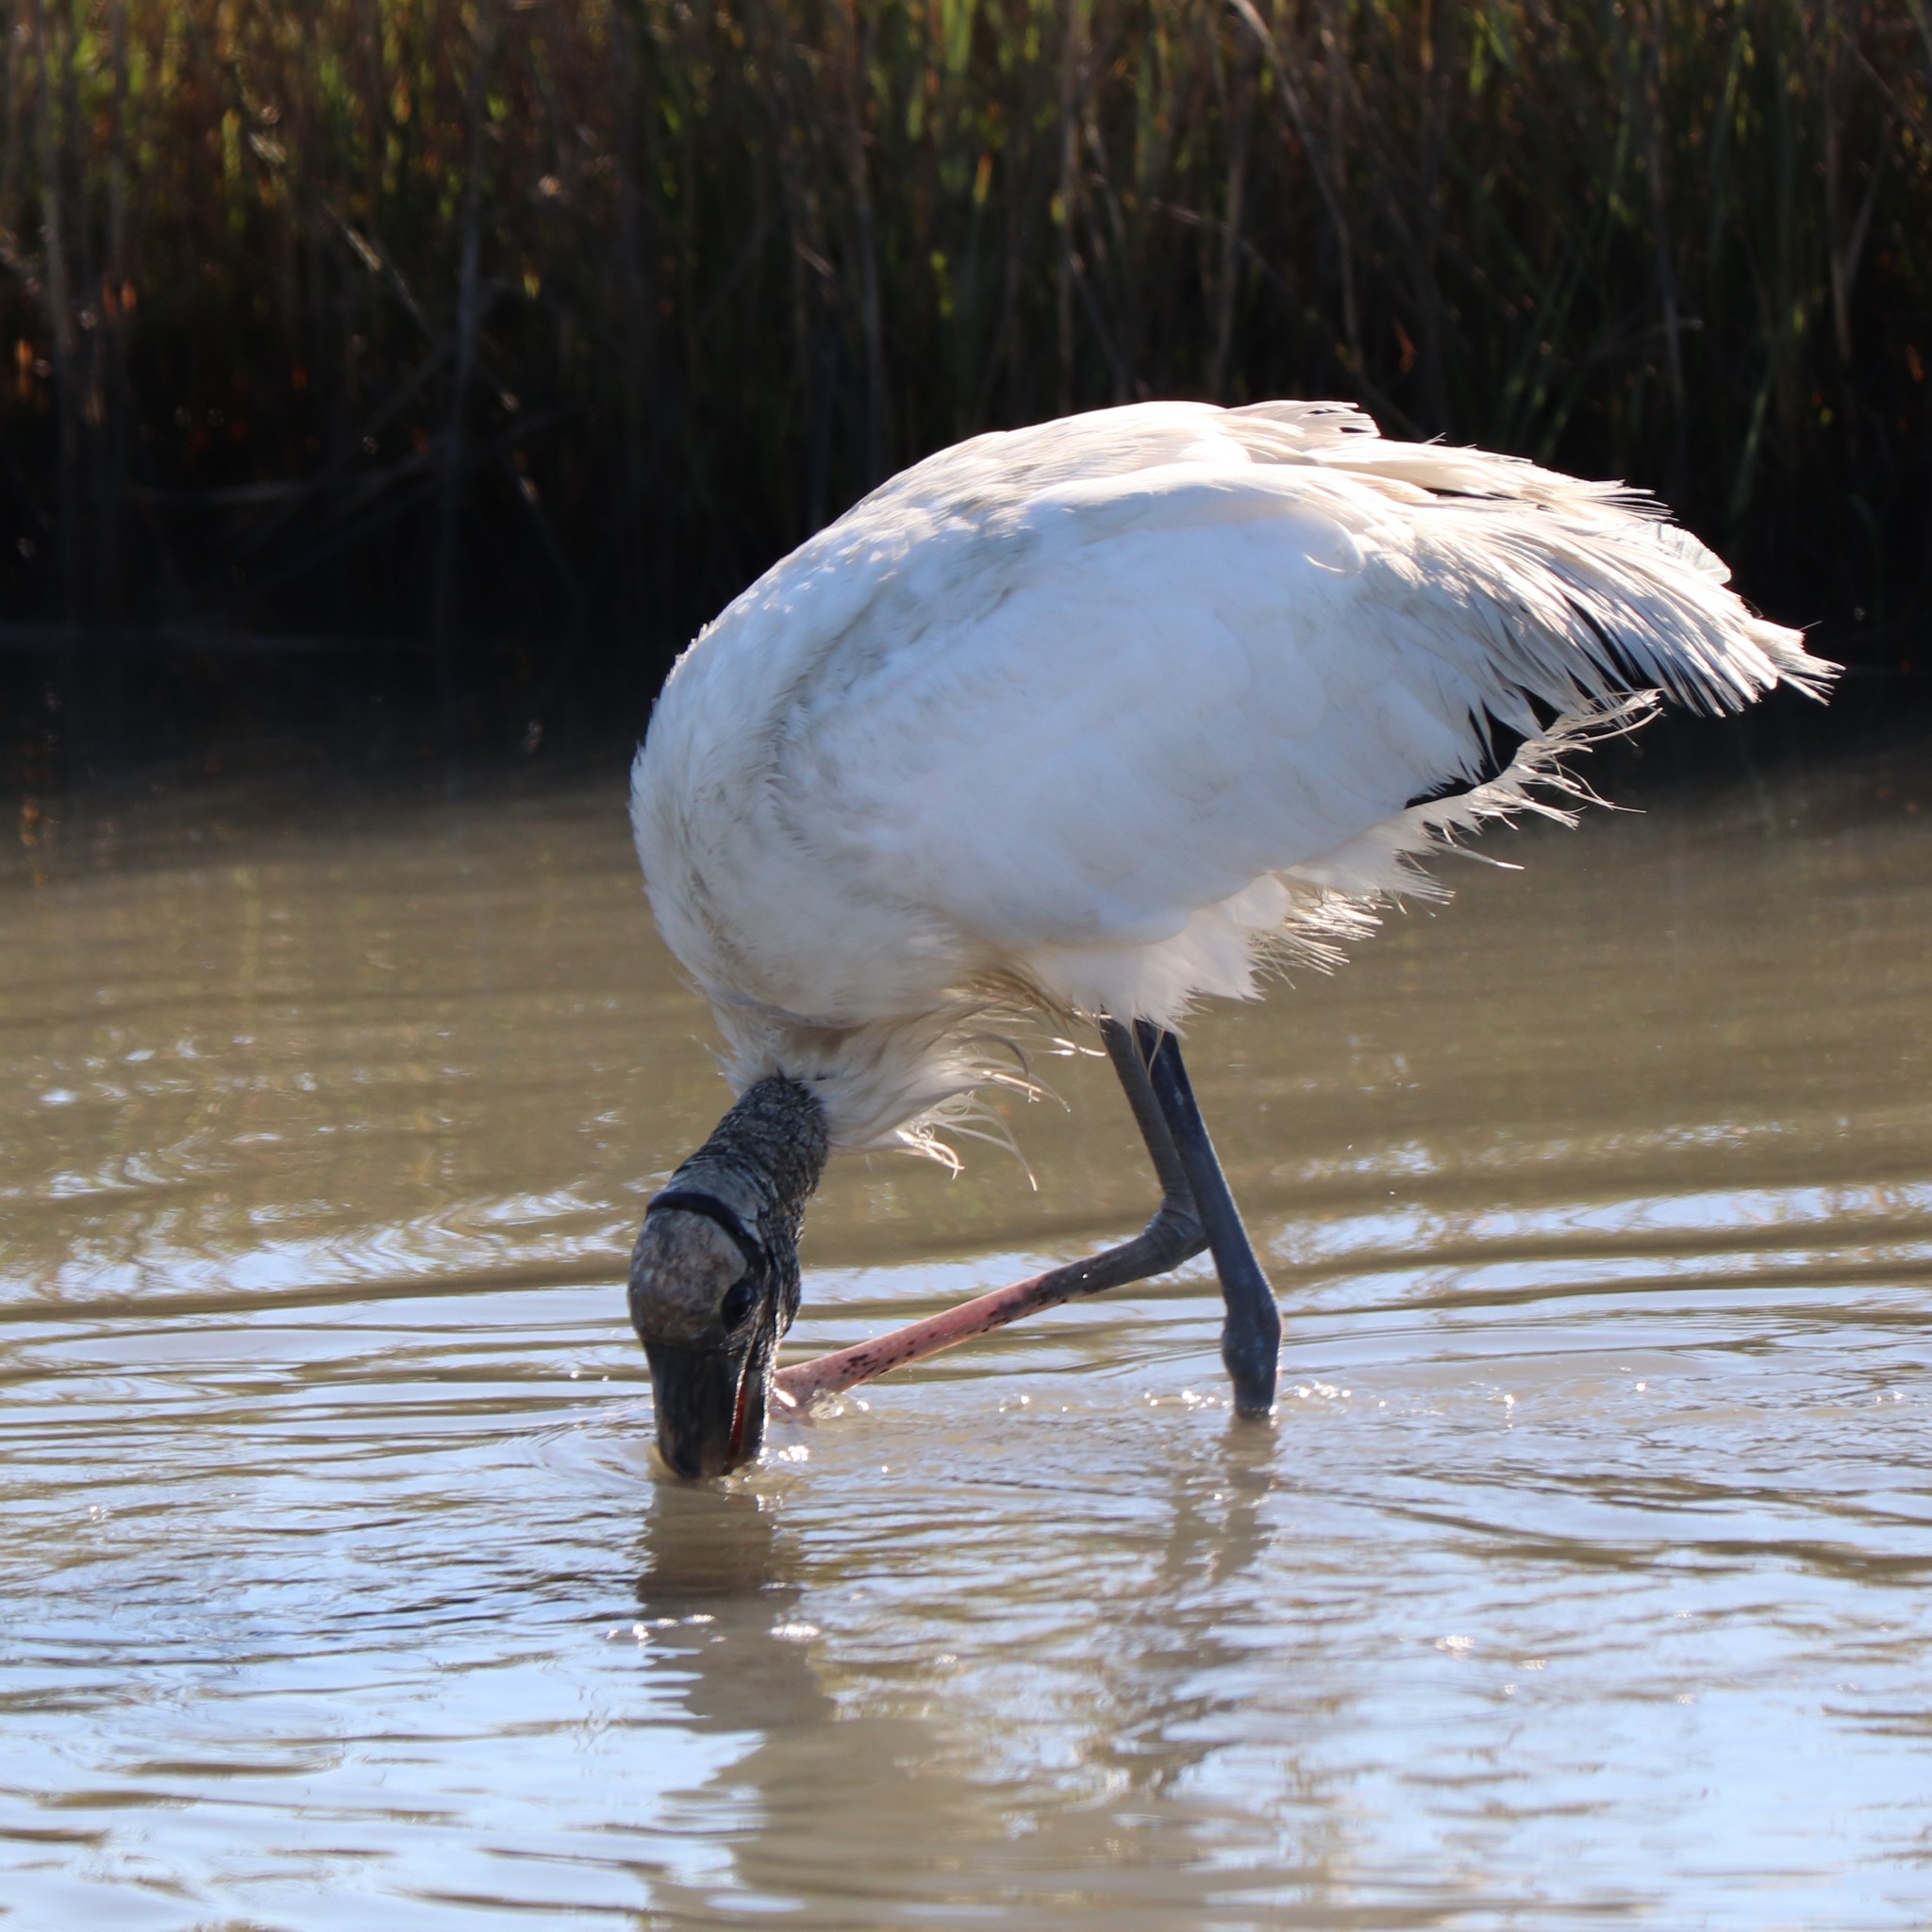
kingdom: Animalia
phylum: Chordata
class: Aves
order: Ciconiiformes
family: Ciconiidae
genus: Mycteria
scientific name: Mycteria americana
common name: Wood stork
